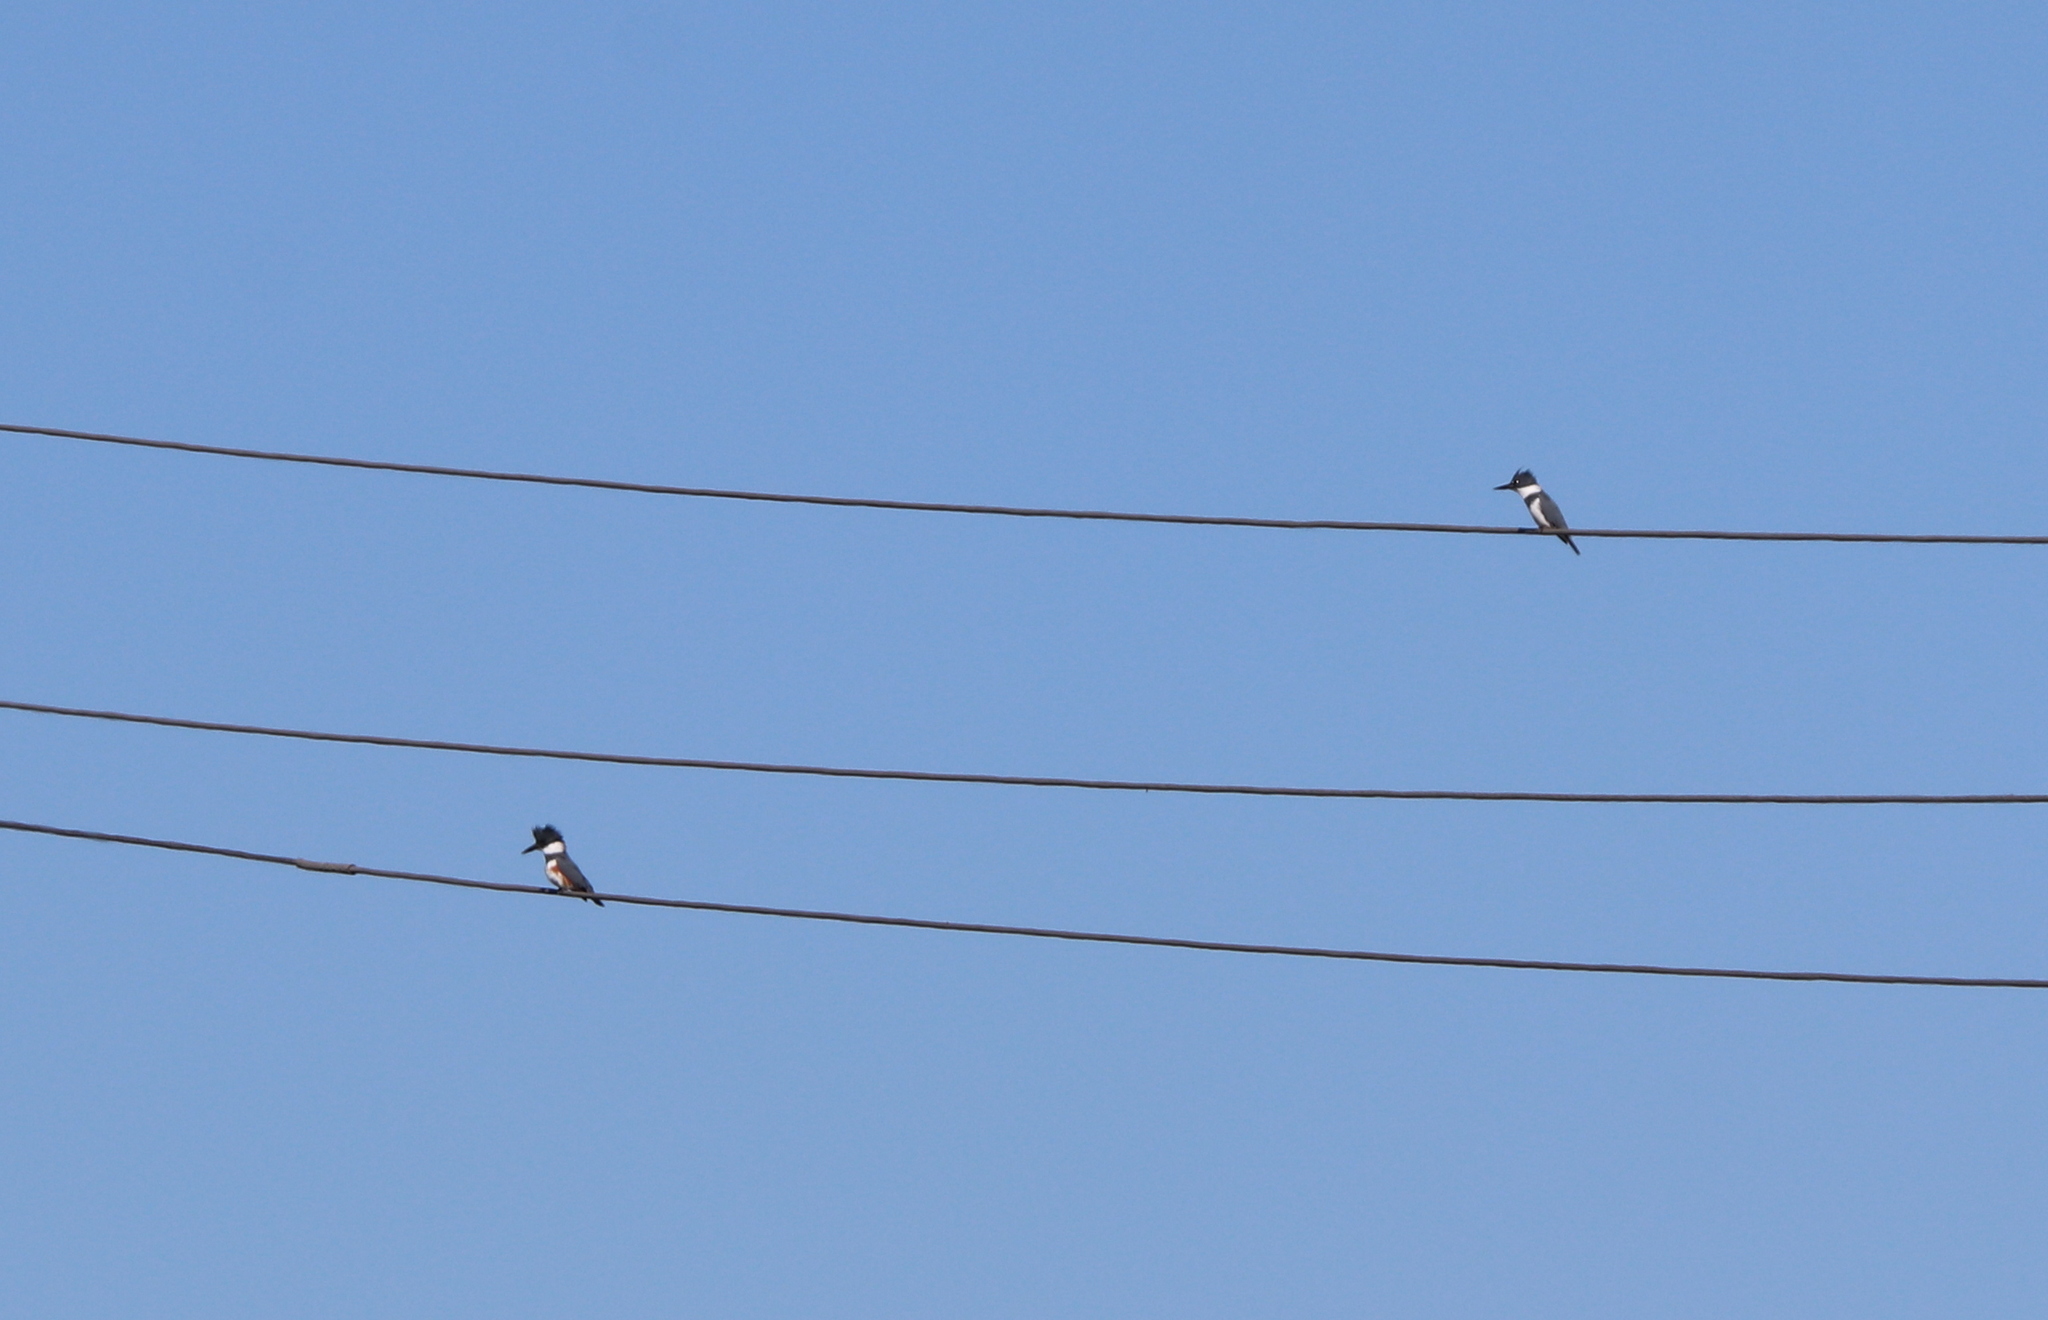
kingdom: Animalia
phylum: Chordata
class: Aves
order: Coraciiformes
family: Alcedinidae
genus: Megaceryle
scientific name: Megaceryle alcyon
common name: Belted kingfisher
